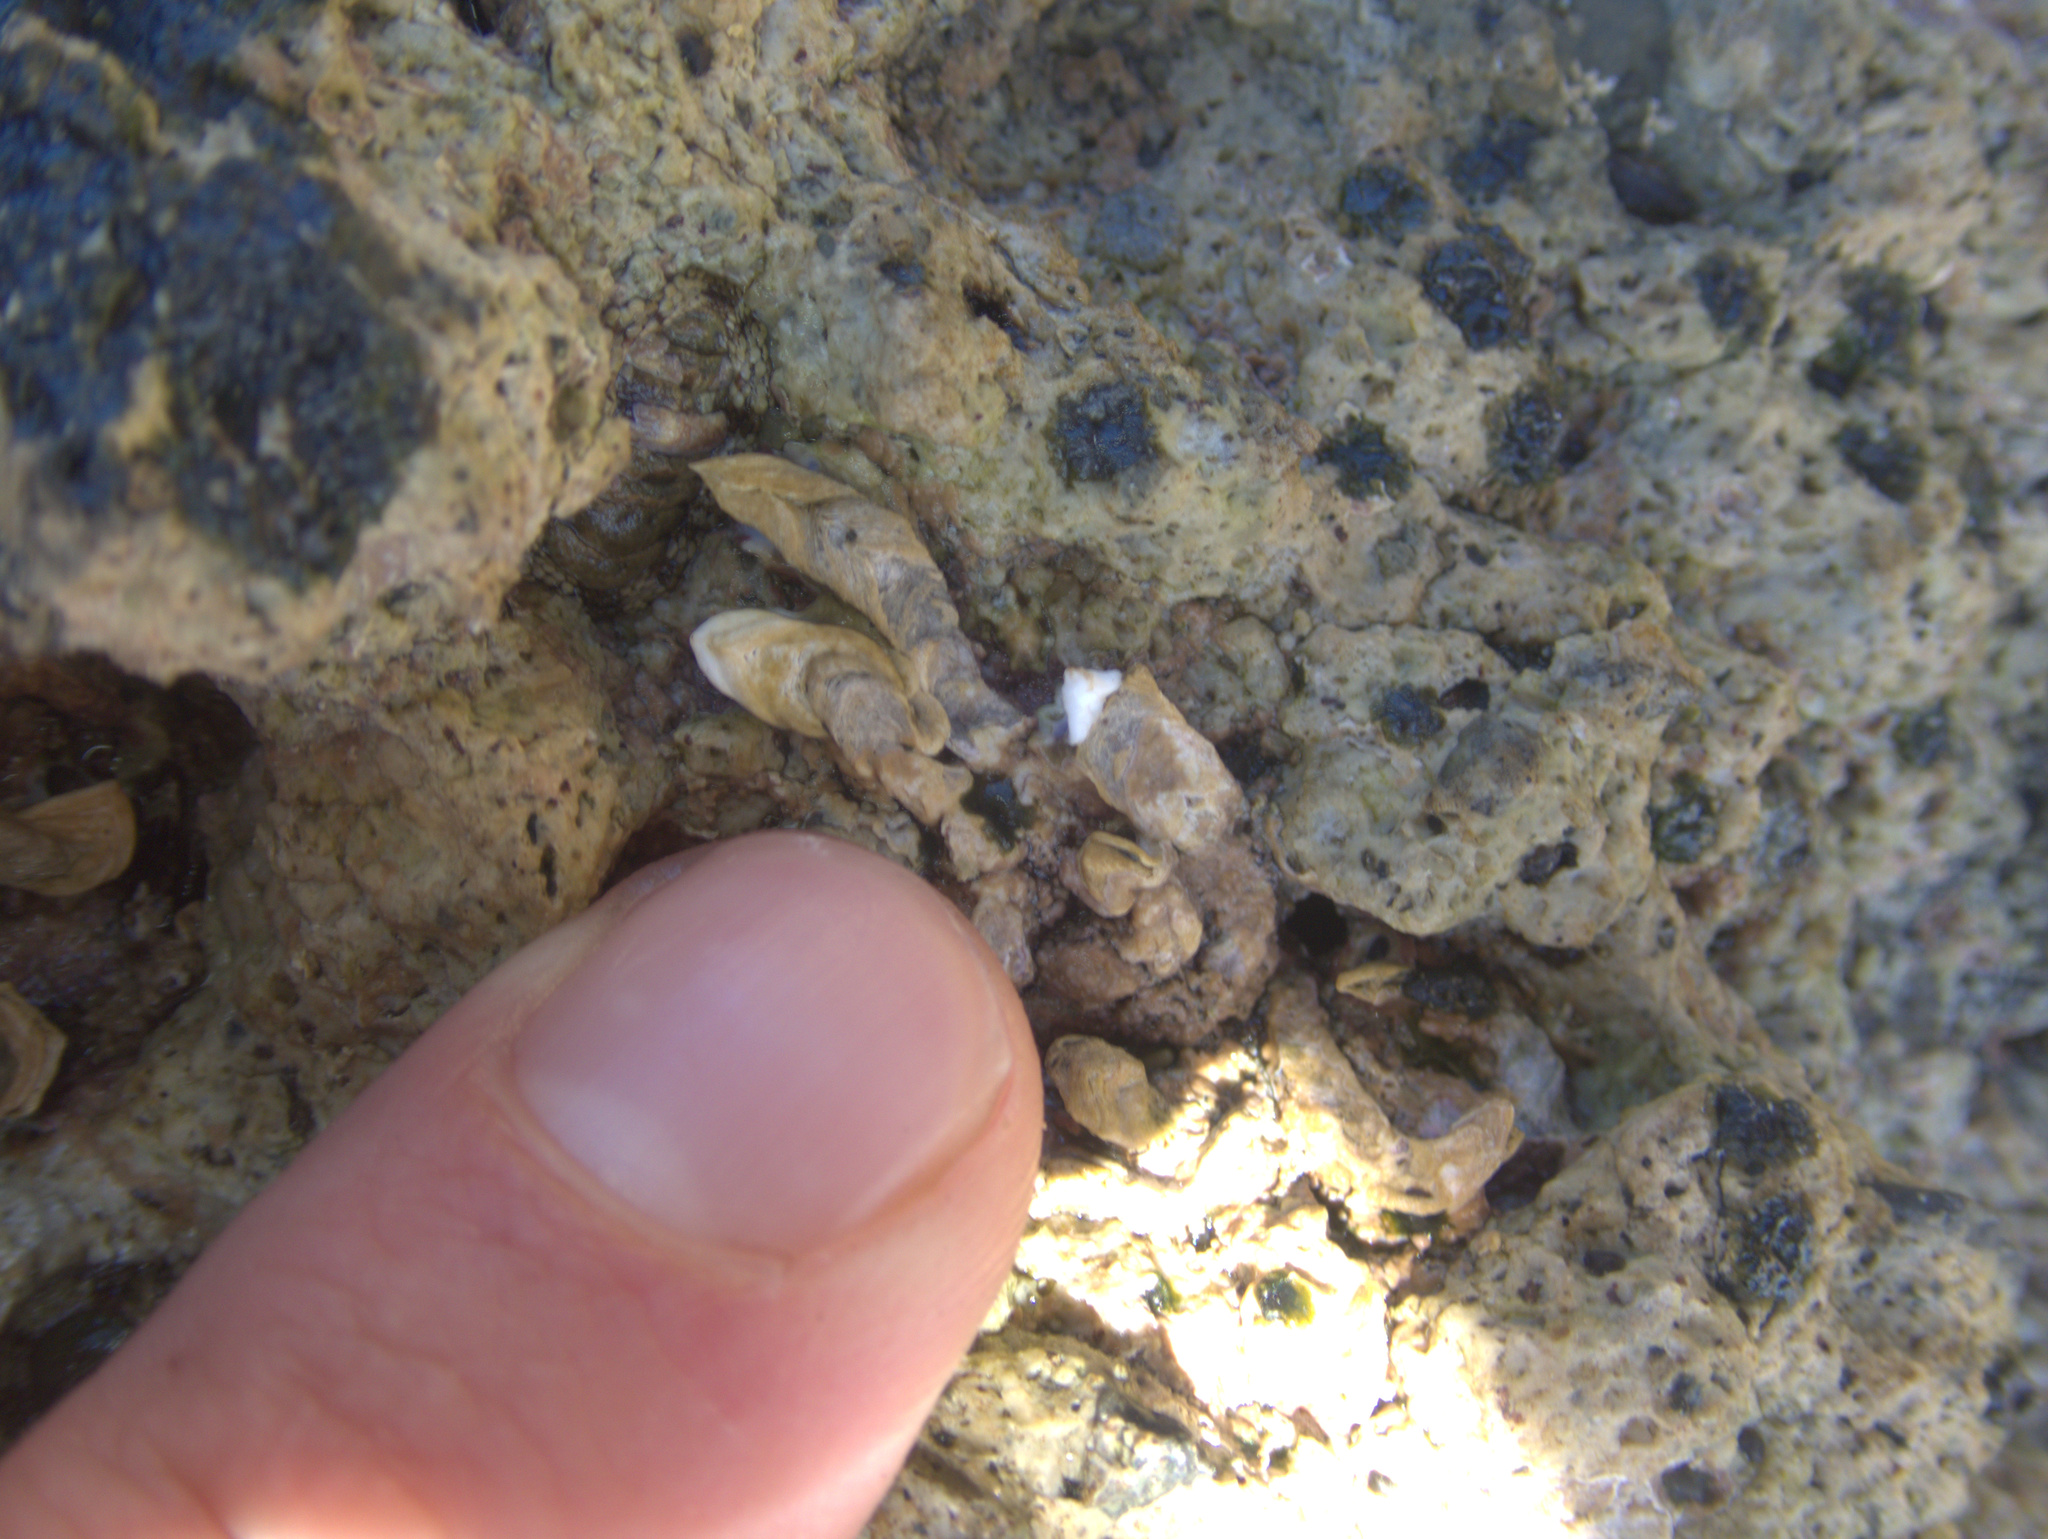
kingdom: Animalia
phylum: Annelida
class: Polychaeta
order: Sabellida
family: Serpulidae
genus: Spirobranchus
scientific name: Spirobranchus cariniferus
